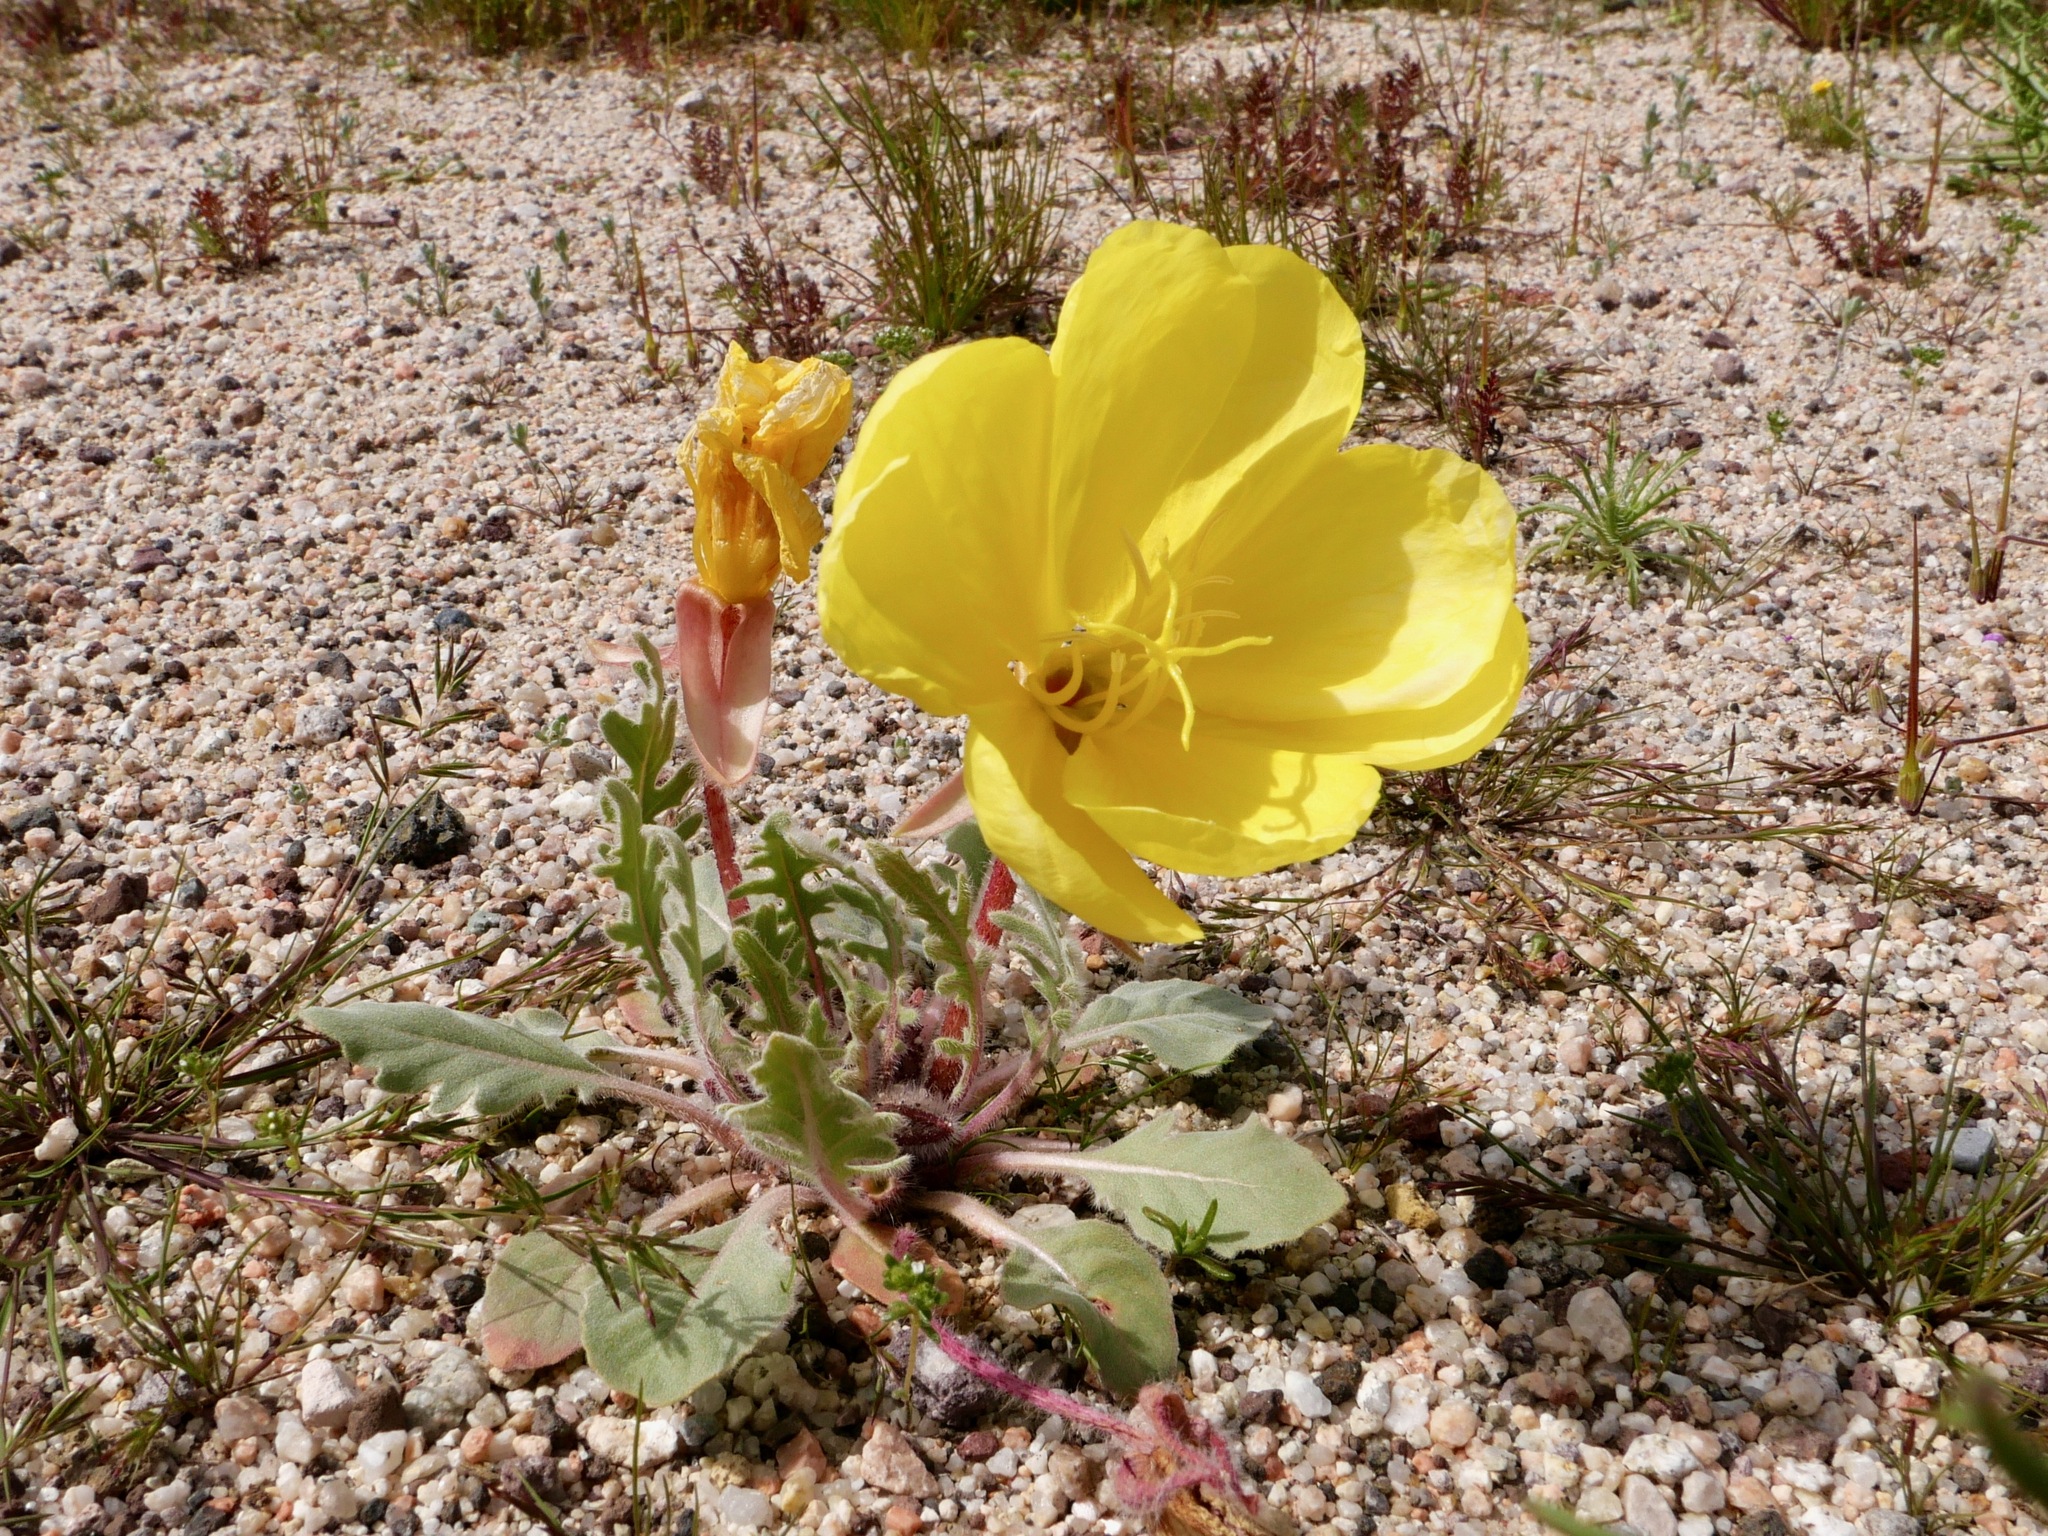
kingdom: Plantae
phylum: Tracheophyta
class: Magnoliopsida
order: Myrtales
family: Onagraceae
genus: Oenothera
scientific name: Oenothera primiveris
